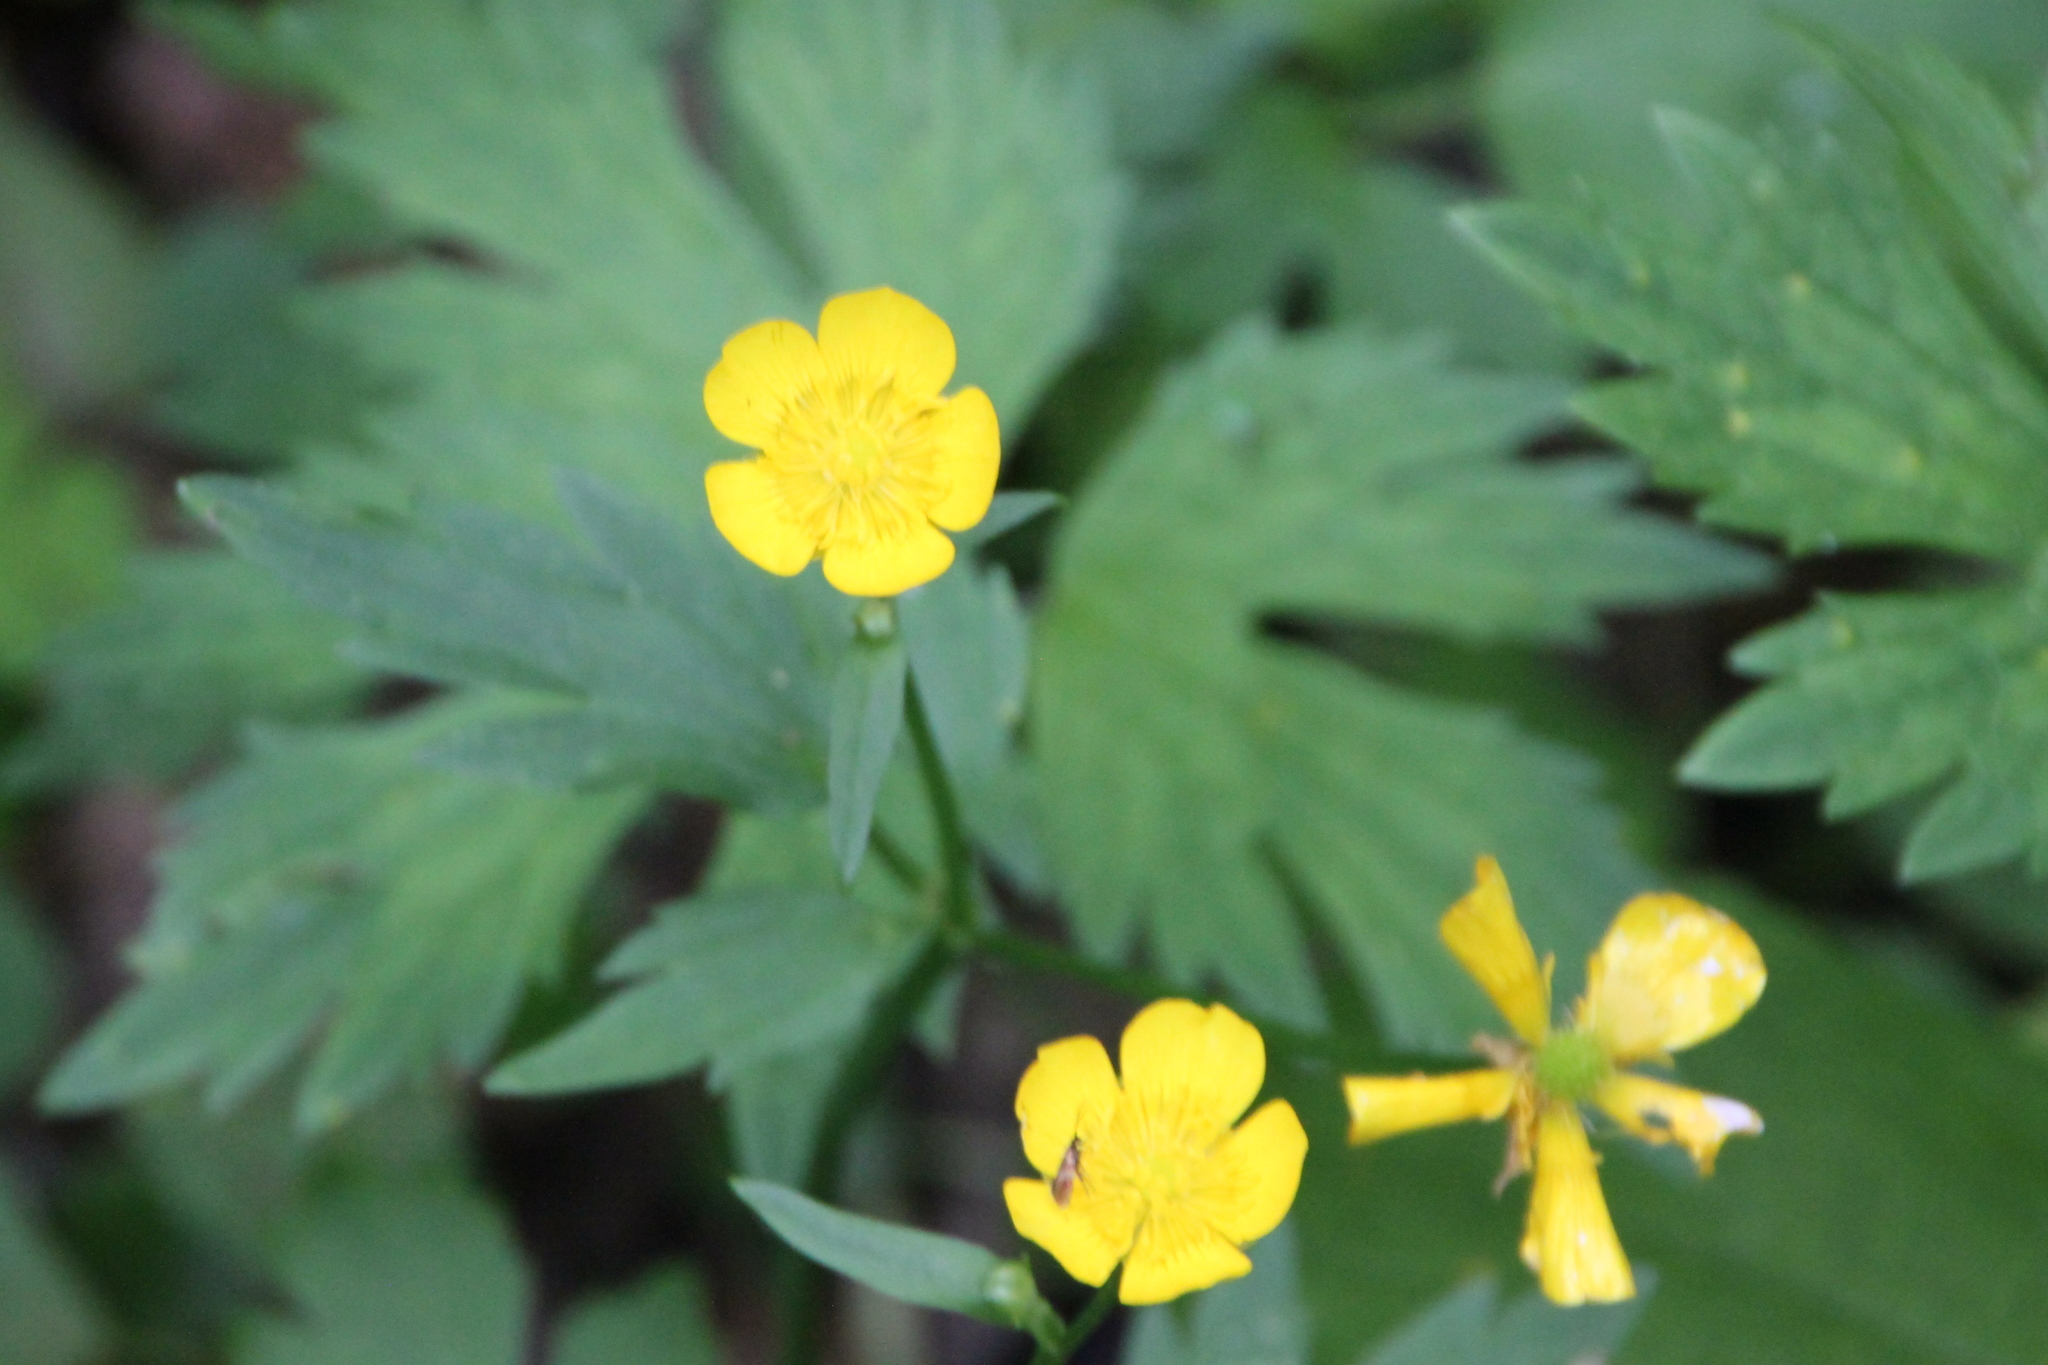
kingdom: Plantae
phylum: Tracheophyta
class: Magnoliopsida
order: Ranunculales
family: Ranunculaceae
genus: Ranunculus
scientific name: Ranunculus repens
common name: Creeping buttercup
